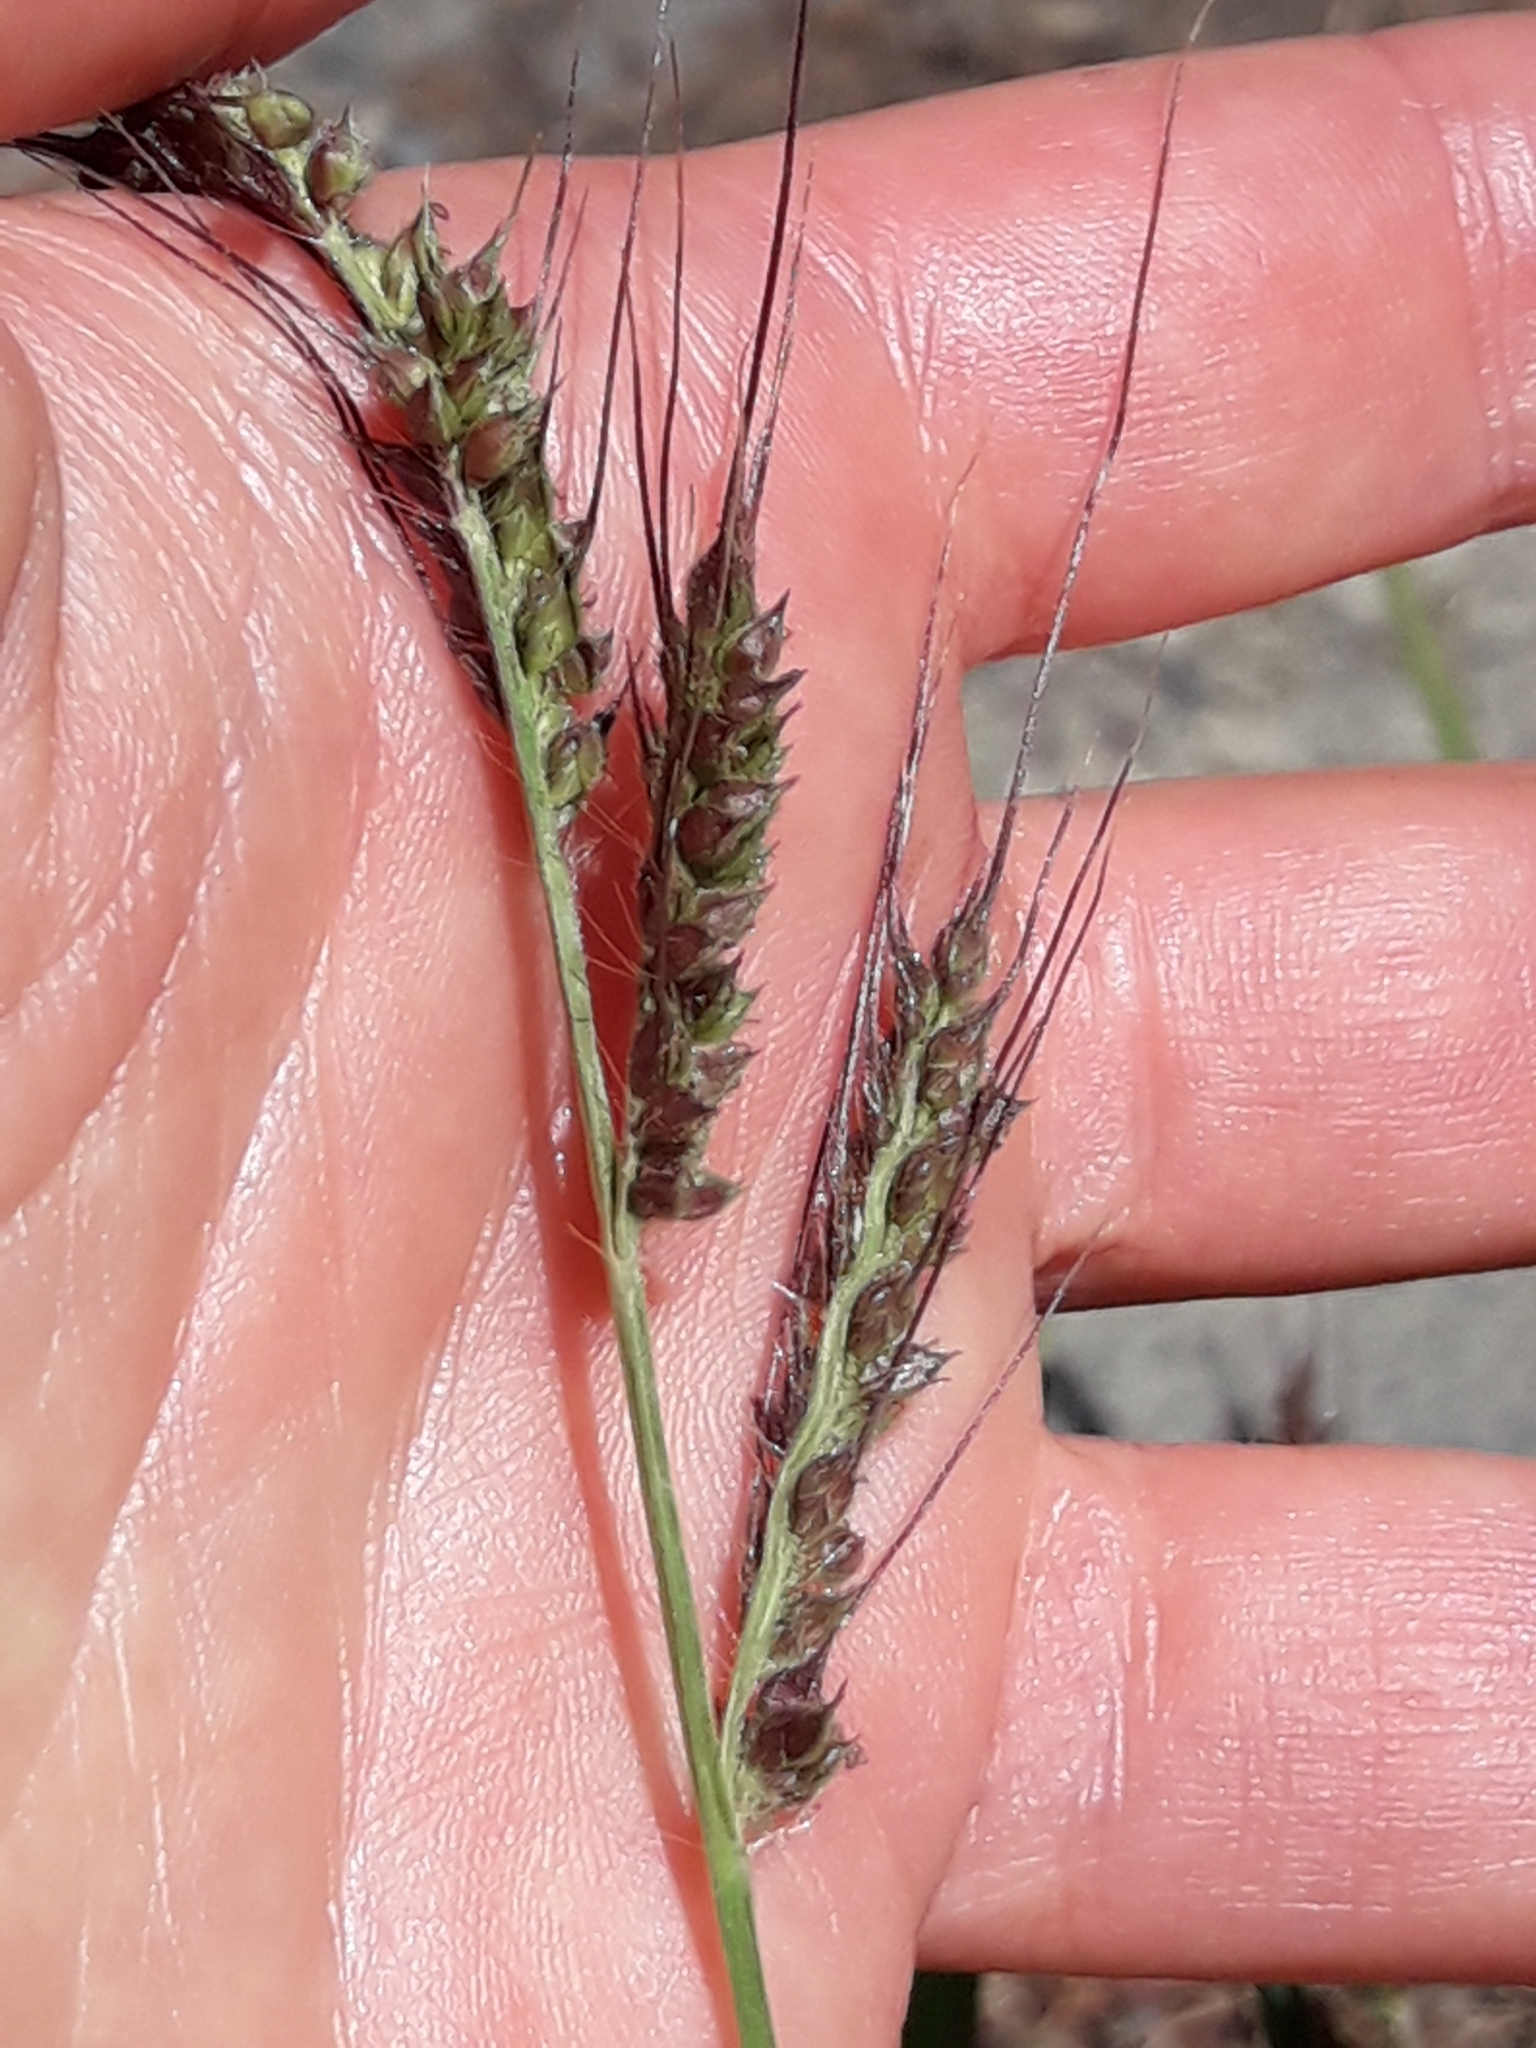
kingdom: Plantae
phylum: Tracheophyta
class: Liliopsida
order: Poales
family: Poaceae
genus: Echinochloa
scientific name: Echinochloa crus-galli
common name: Cockspur
